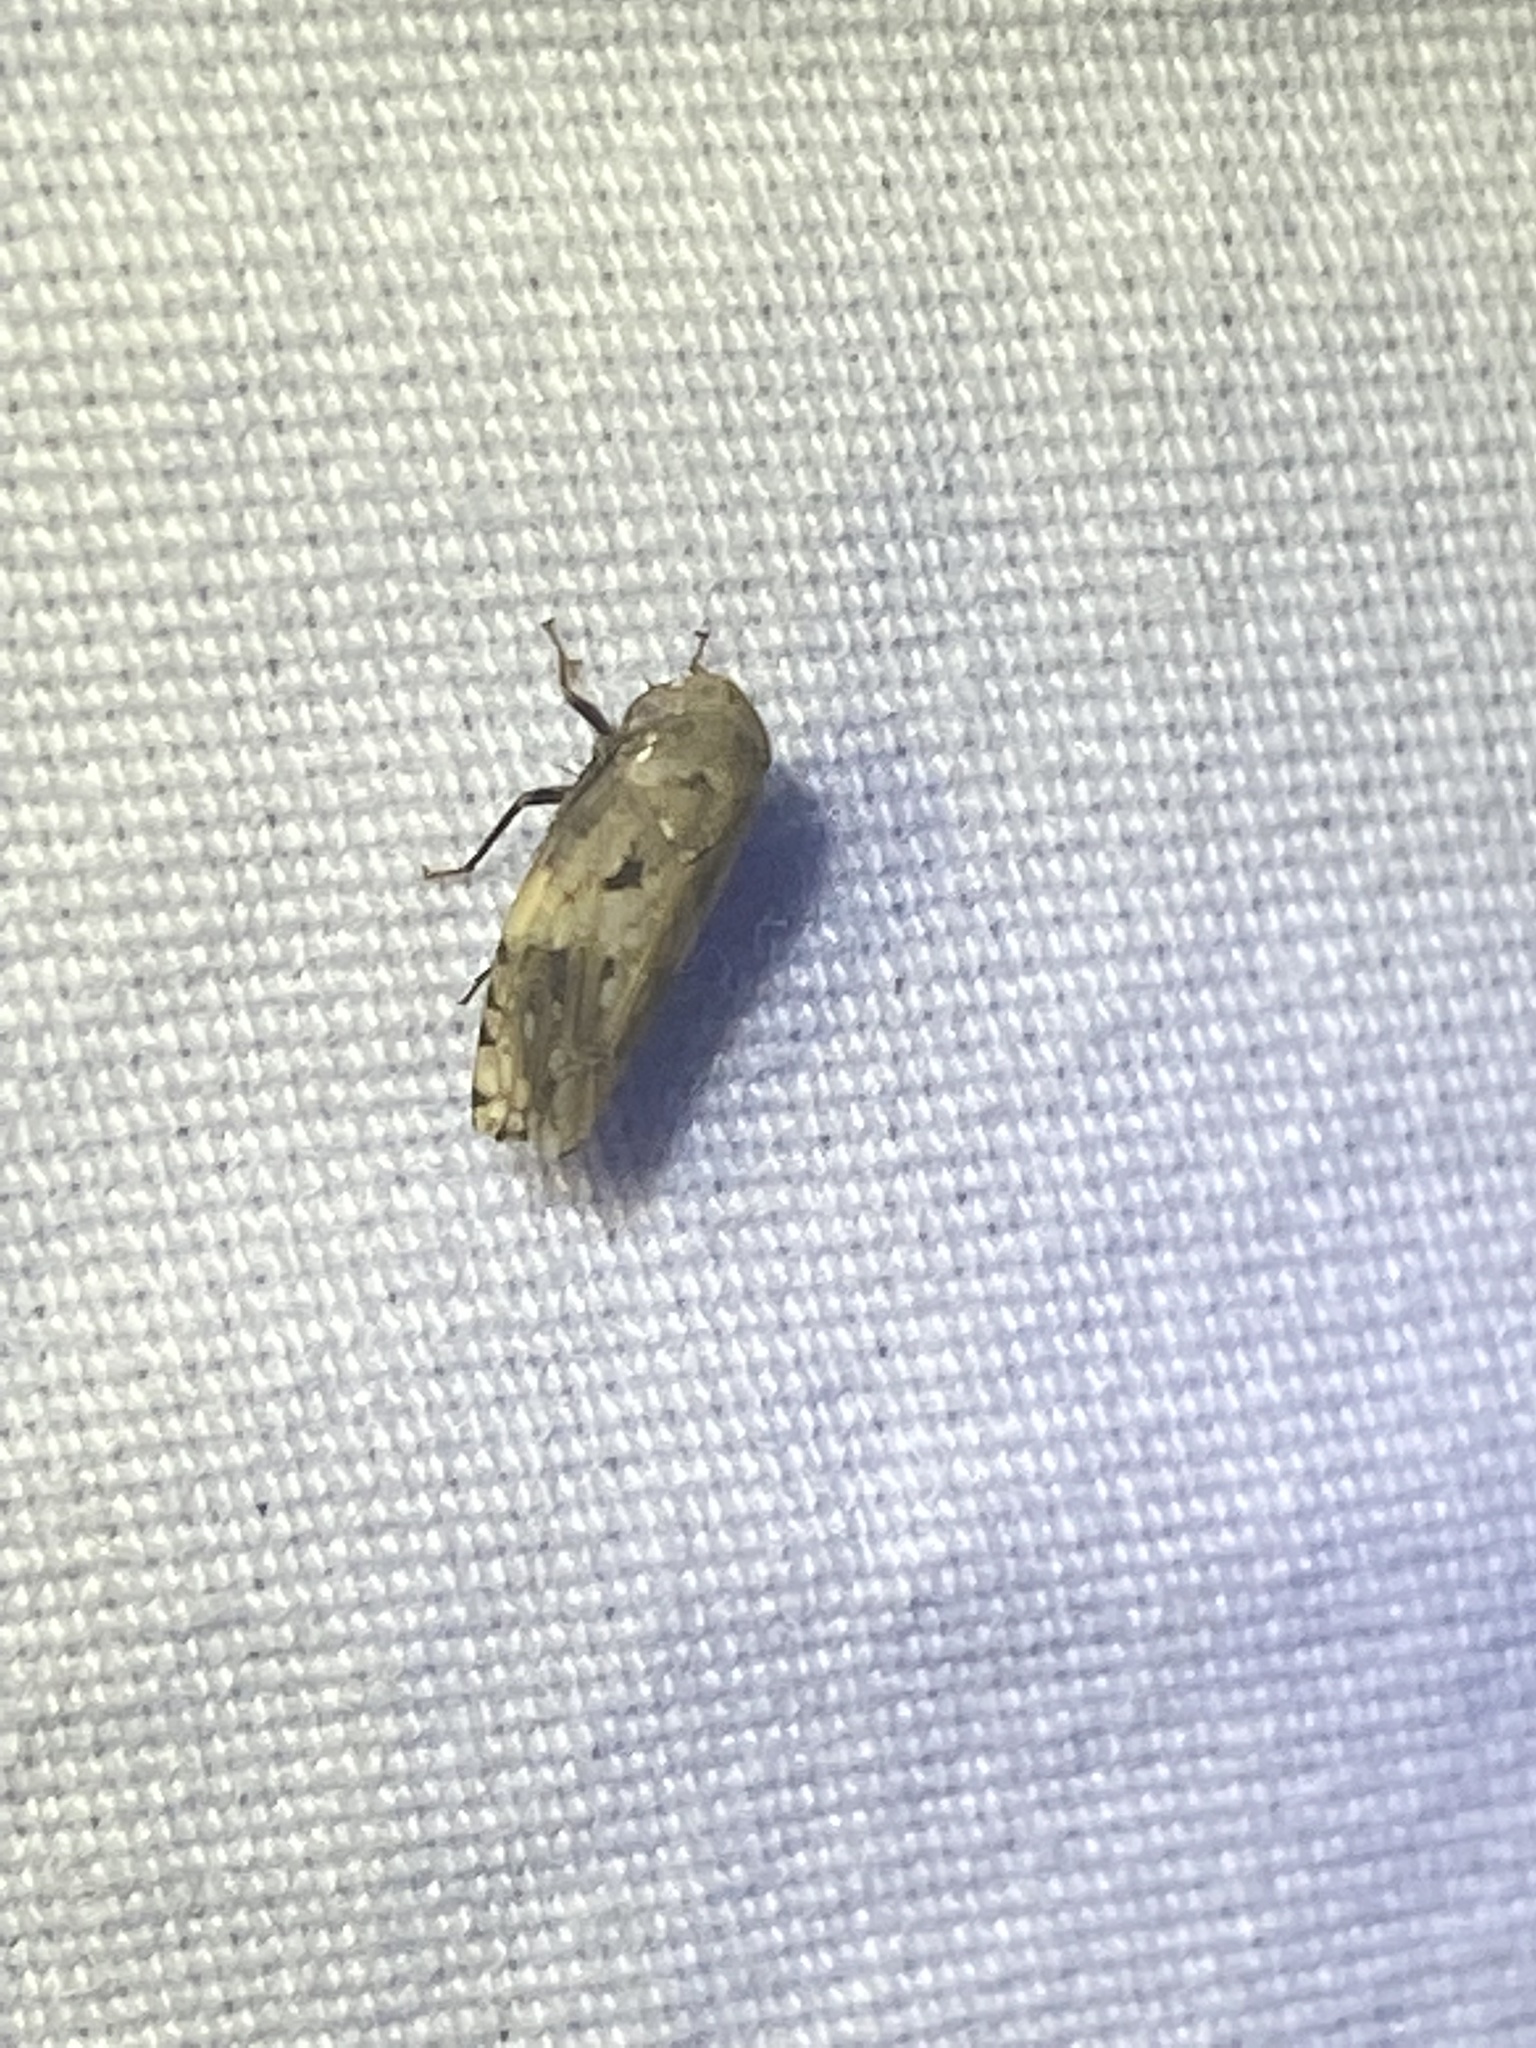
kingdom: Animalia
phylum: Arthropoda
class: Insecta
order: Hemiptera
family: Cicadellidae
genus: Menosoma
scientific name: Menosoma cinctum
